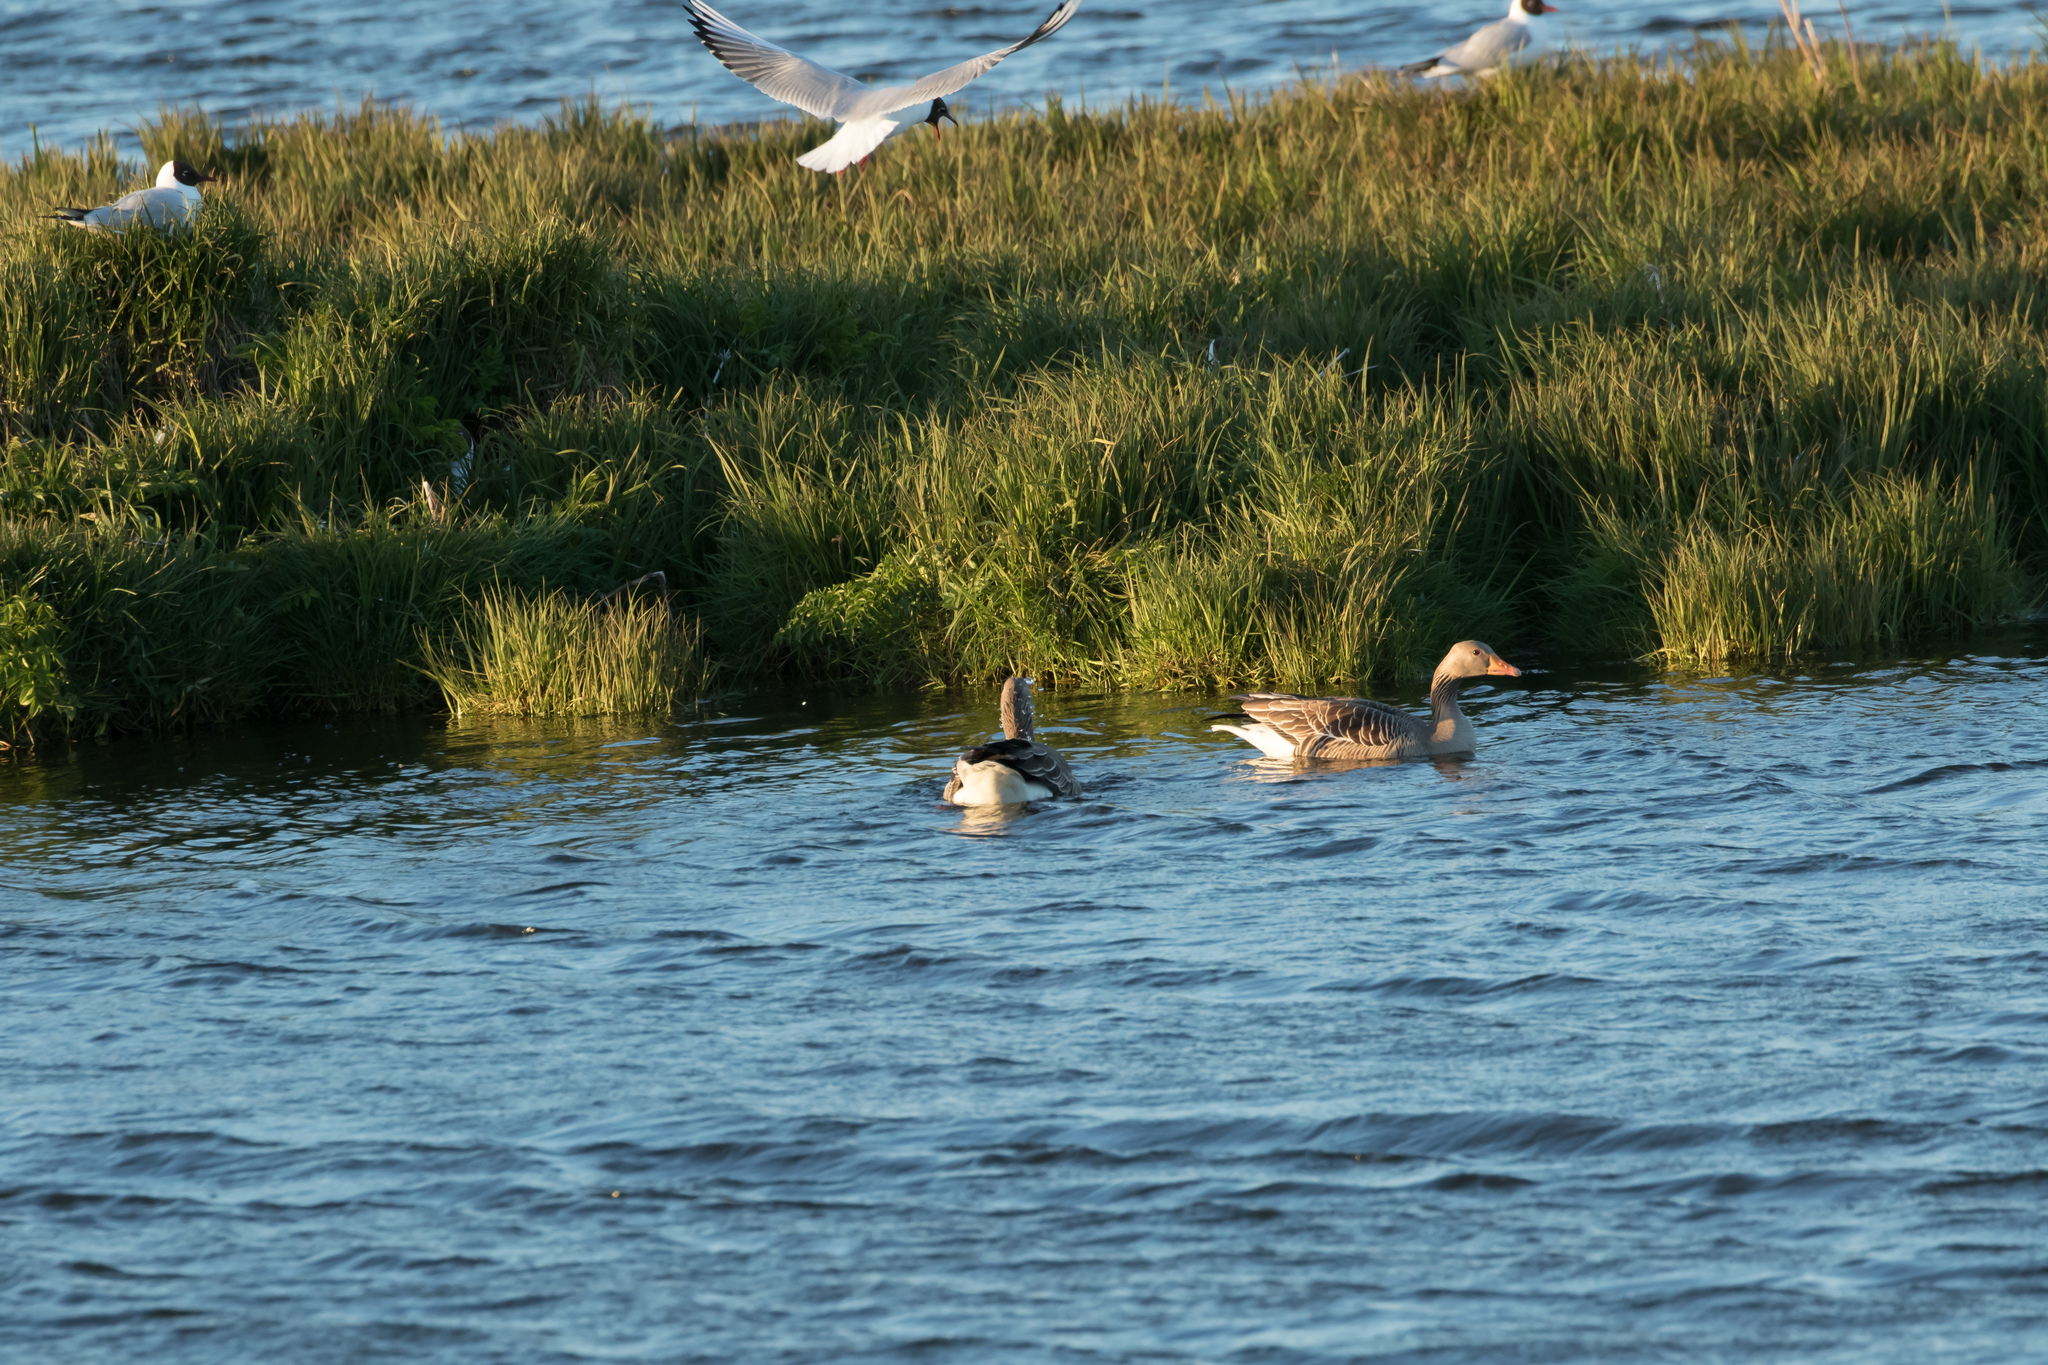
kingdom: Animalia
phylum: Chordata
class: Aves
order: Anseriformes
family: Anatidae
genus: Anser
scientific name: Anser anser
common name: Greylag goose
